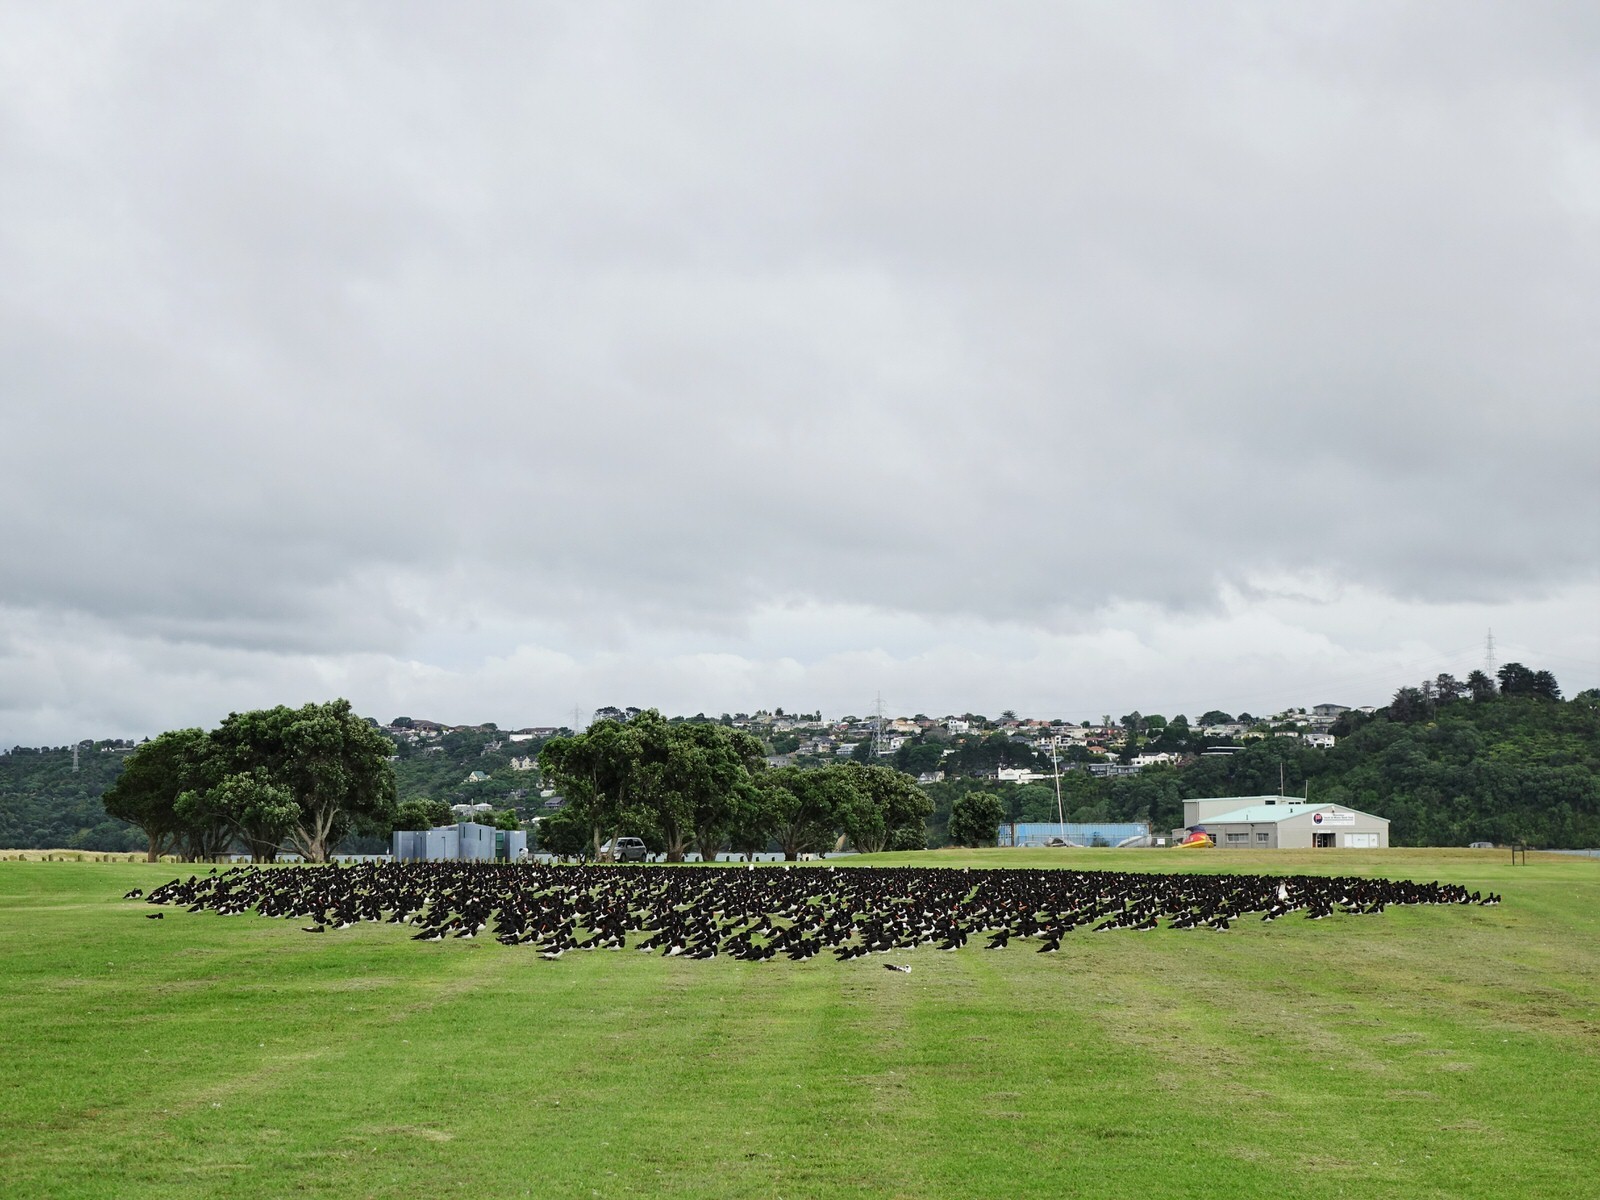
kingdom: Animalia
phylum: Chordata
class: Aves
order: Charadriiformes
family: Haematopodidae
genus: Haematopus
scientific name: Haematopus finschi
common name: South island oystercatcher
